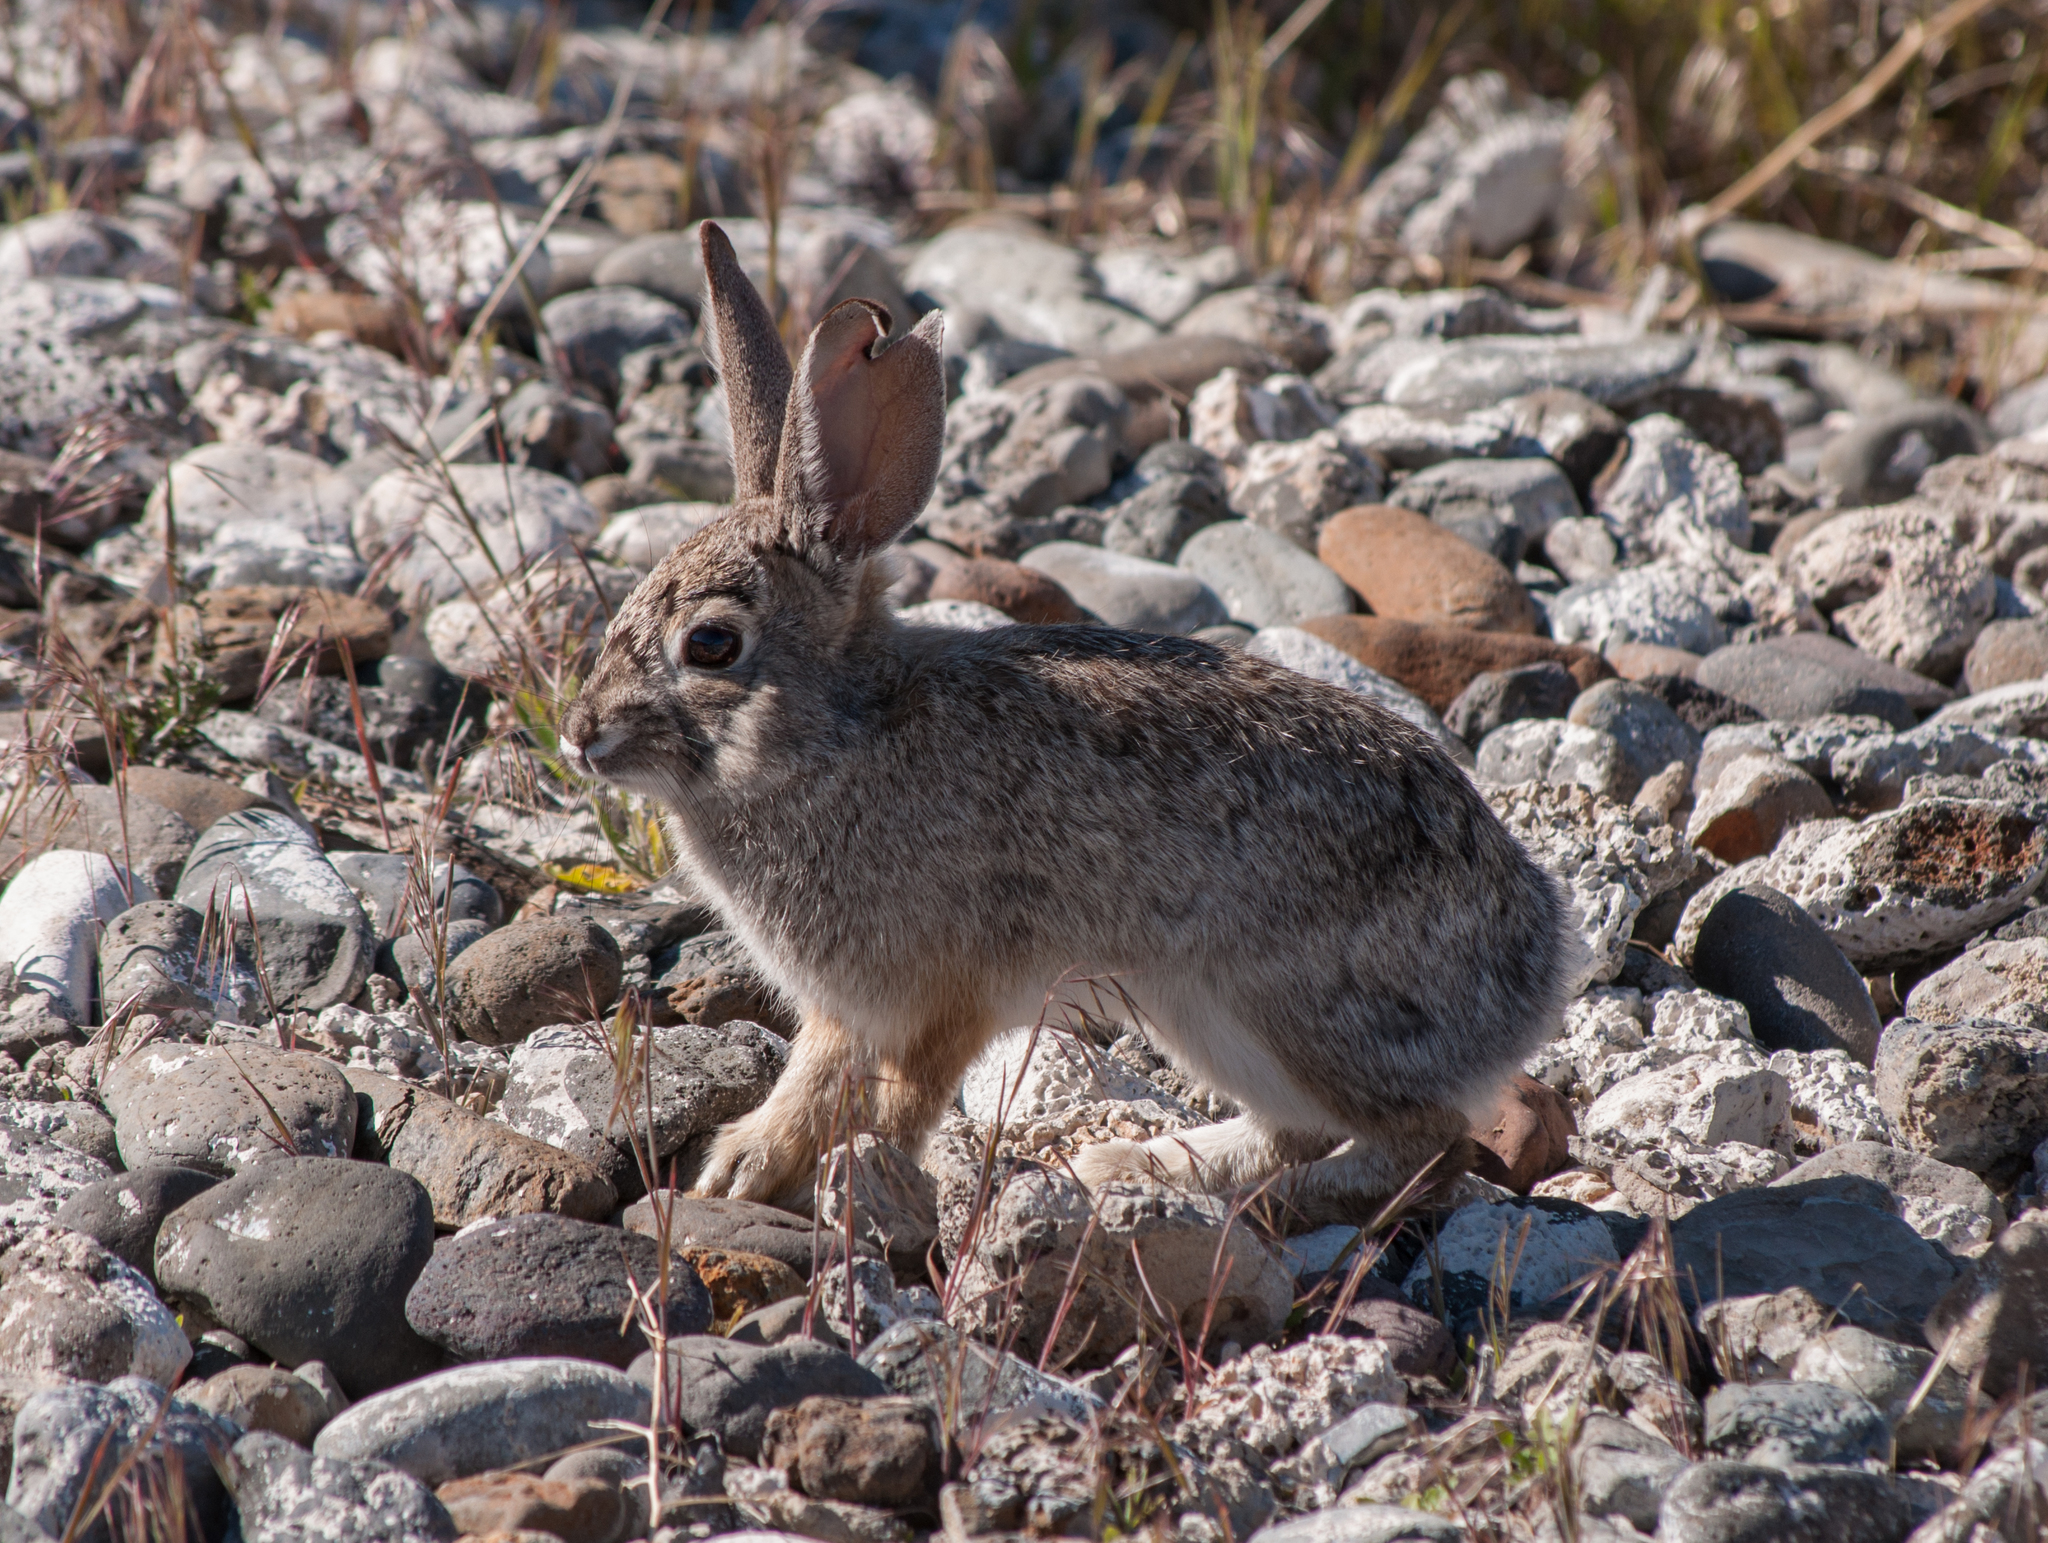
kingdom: Animalia
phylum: Chordata
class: Mammalia
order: Lagomorpha
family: Leporidae
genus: Sylvilagus
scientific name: Sylvilagus nuttallii
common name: Mountain cottontail
